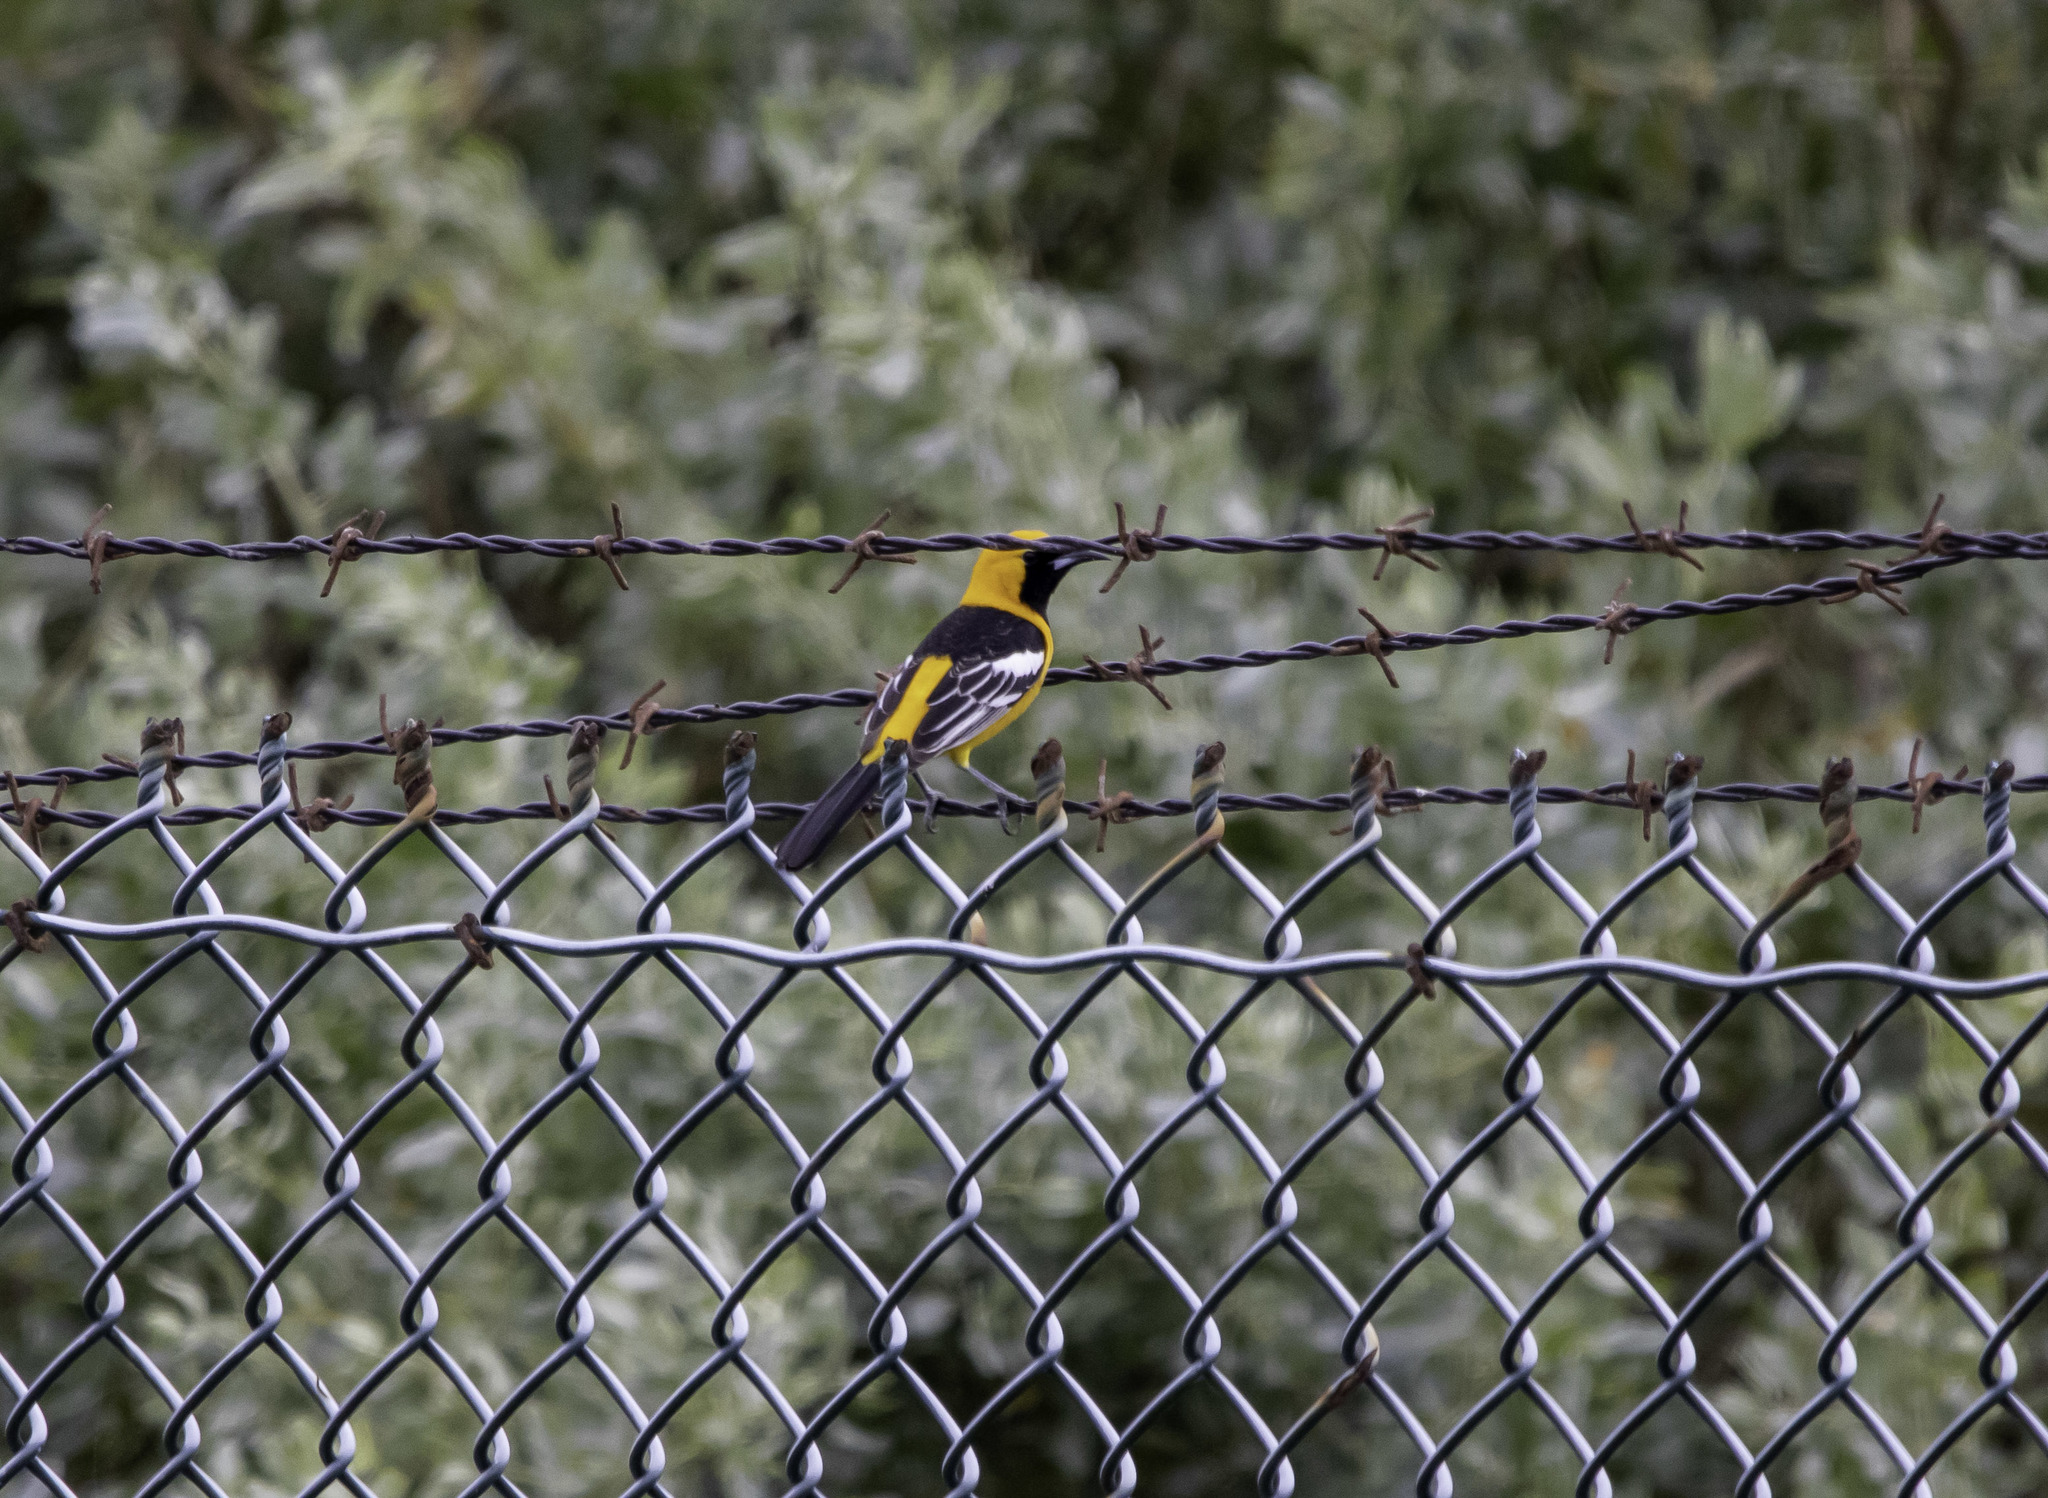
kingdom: Animalia
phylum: Chordata
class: Aves
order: Passeriformes
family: Icteridae
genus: Icterus
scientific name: Icterus cucullatus
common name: Hooded oriole
